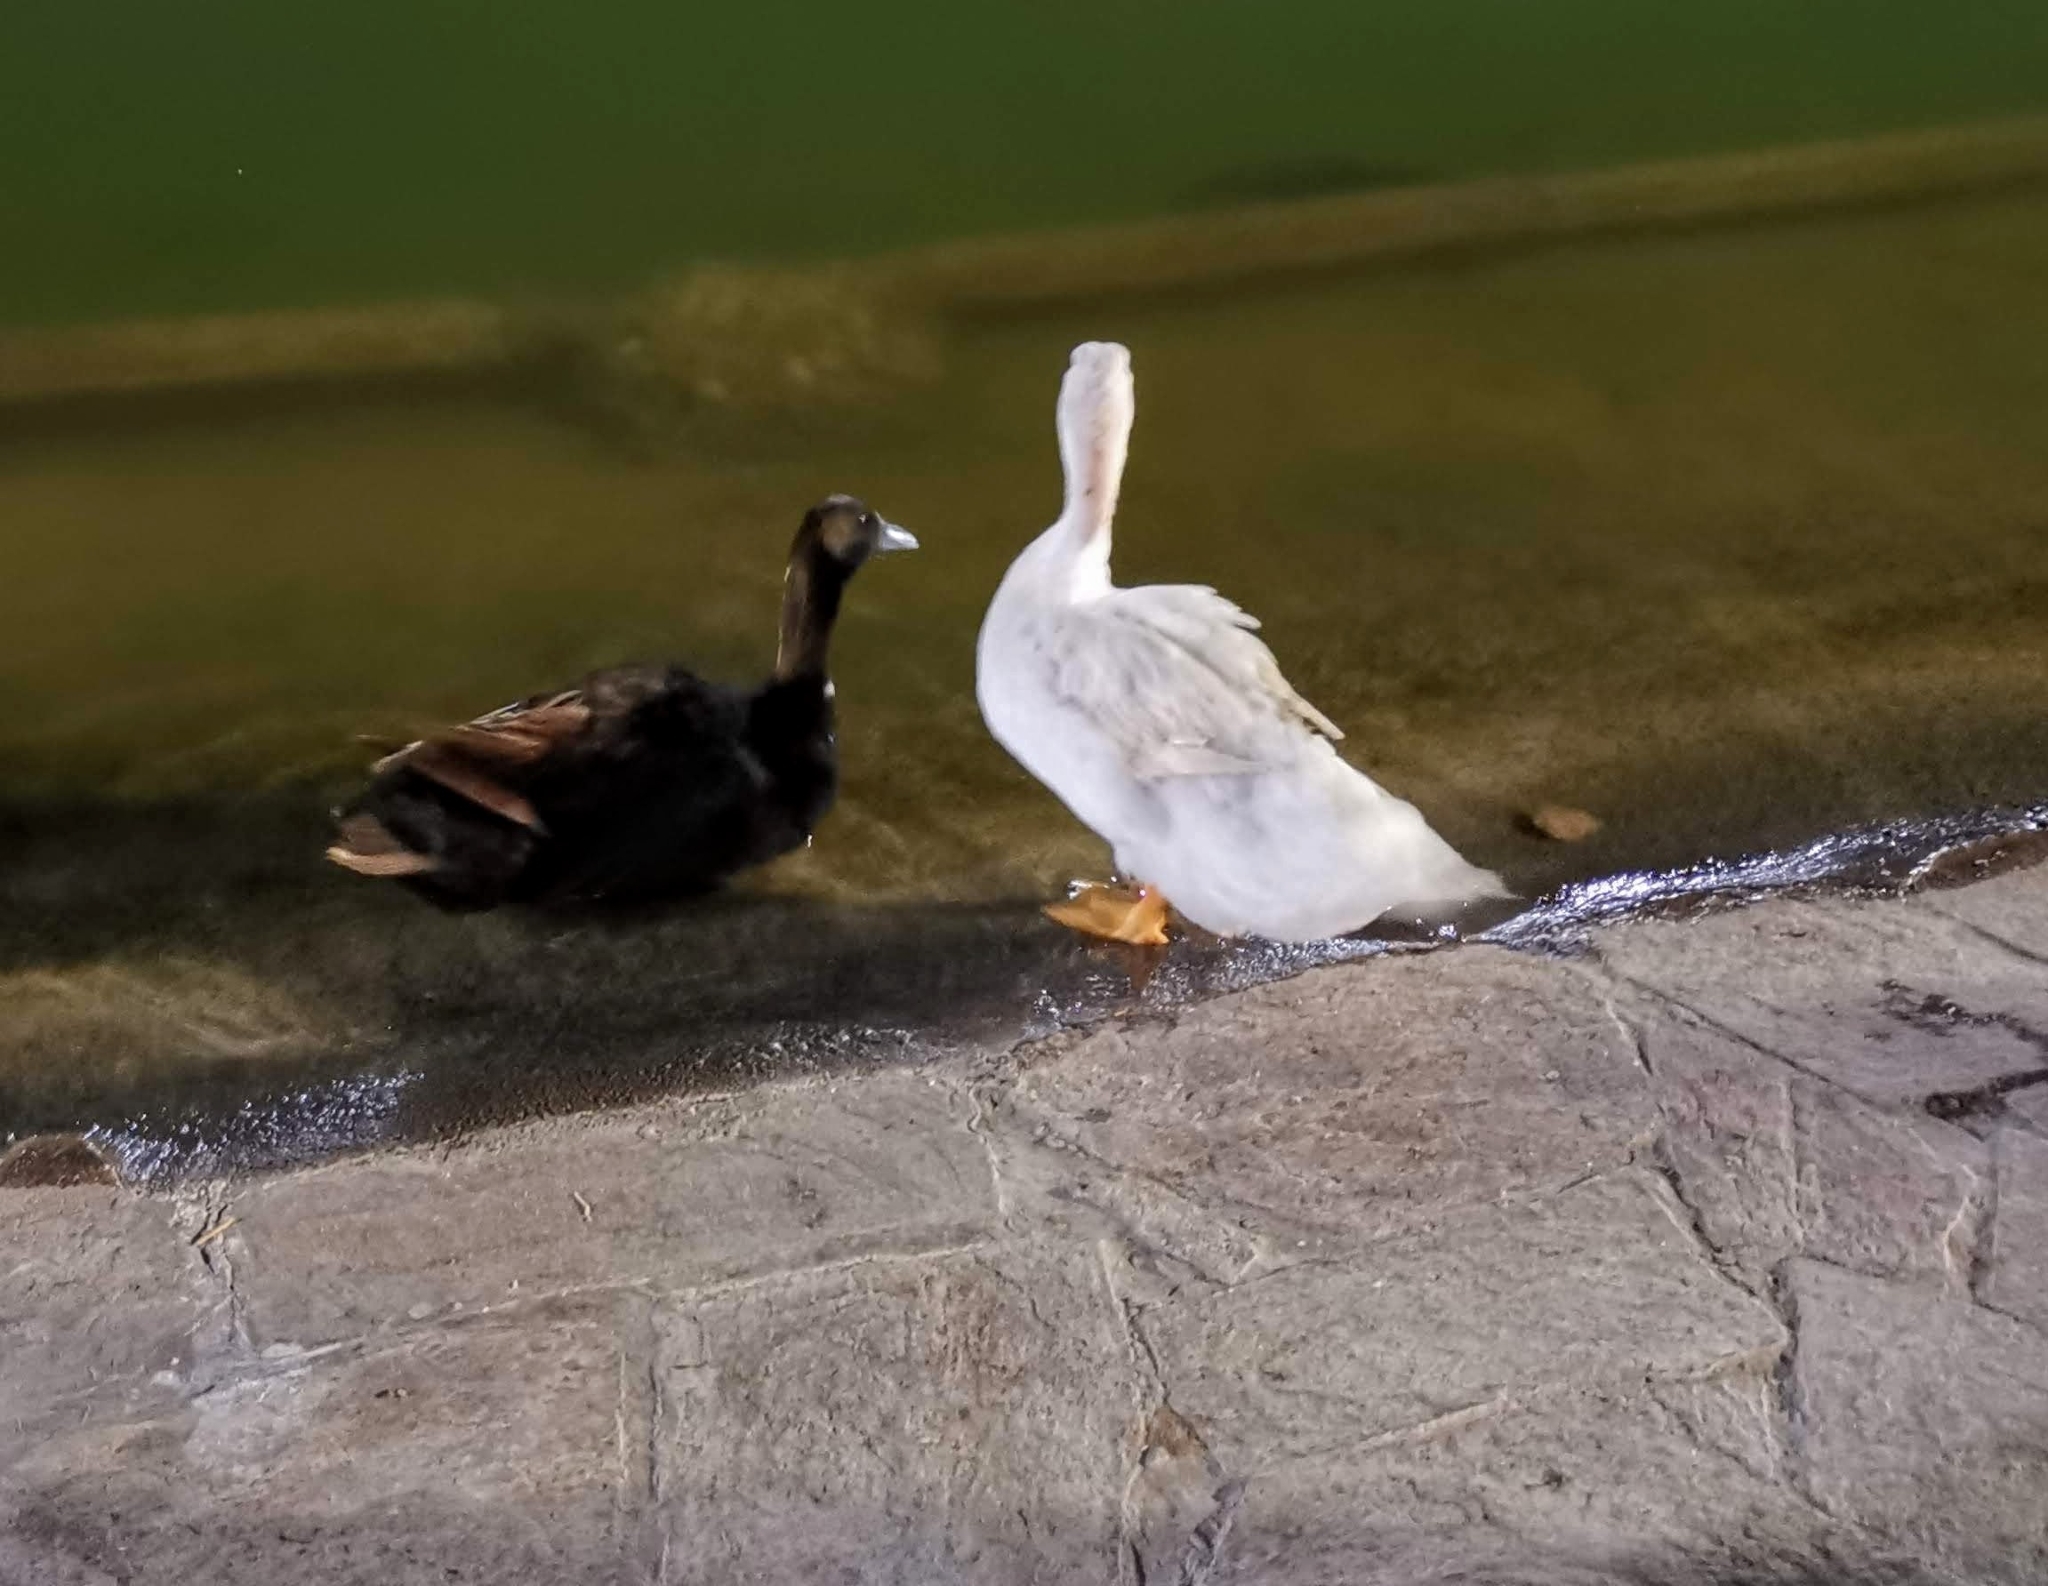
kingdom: Animalia
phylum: Chordata
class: Aves
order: Anseriformes
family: Anatidae
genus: Anas
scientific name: Anas platyrhynchos
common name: Mallard
